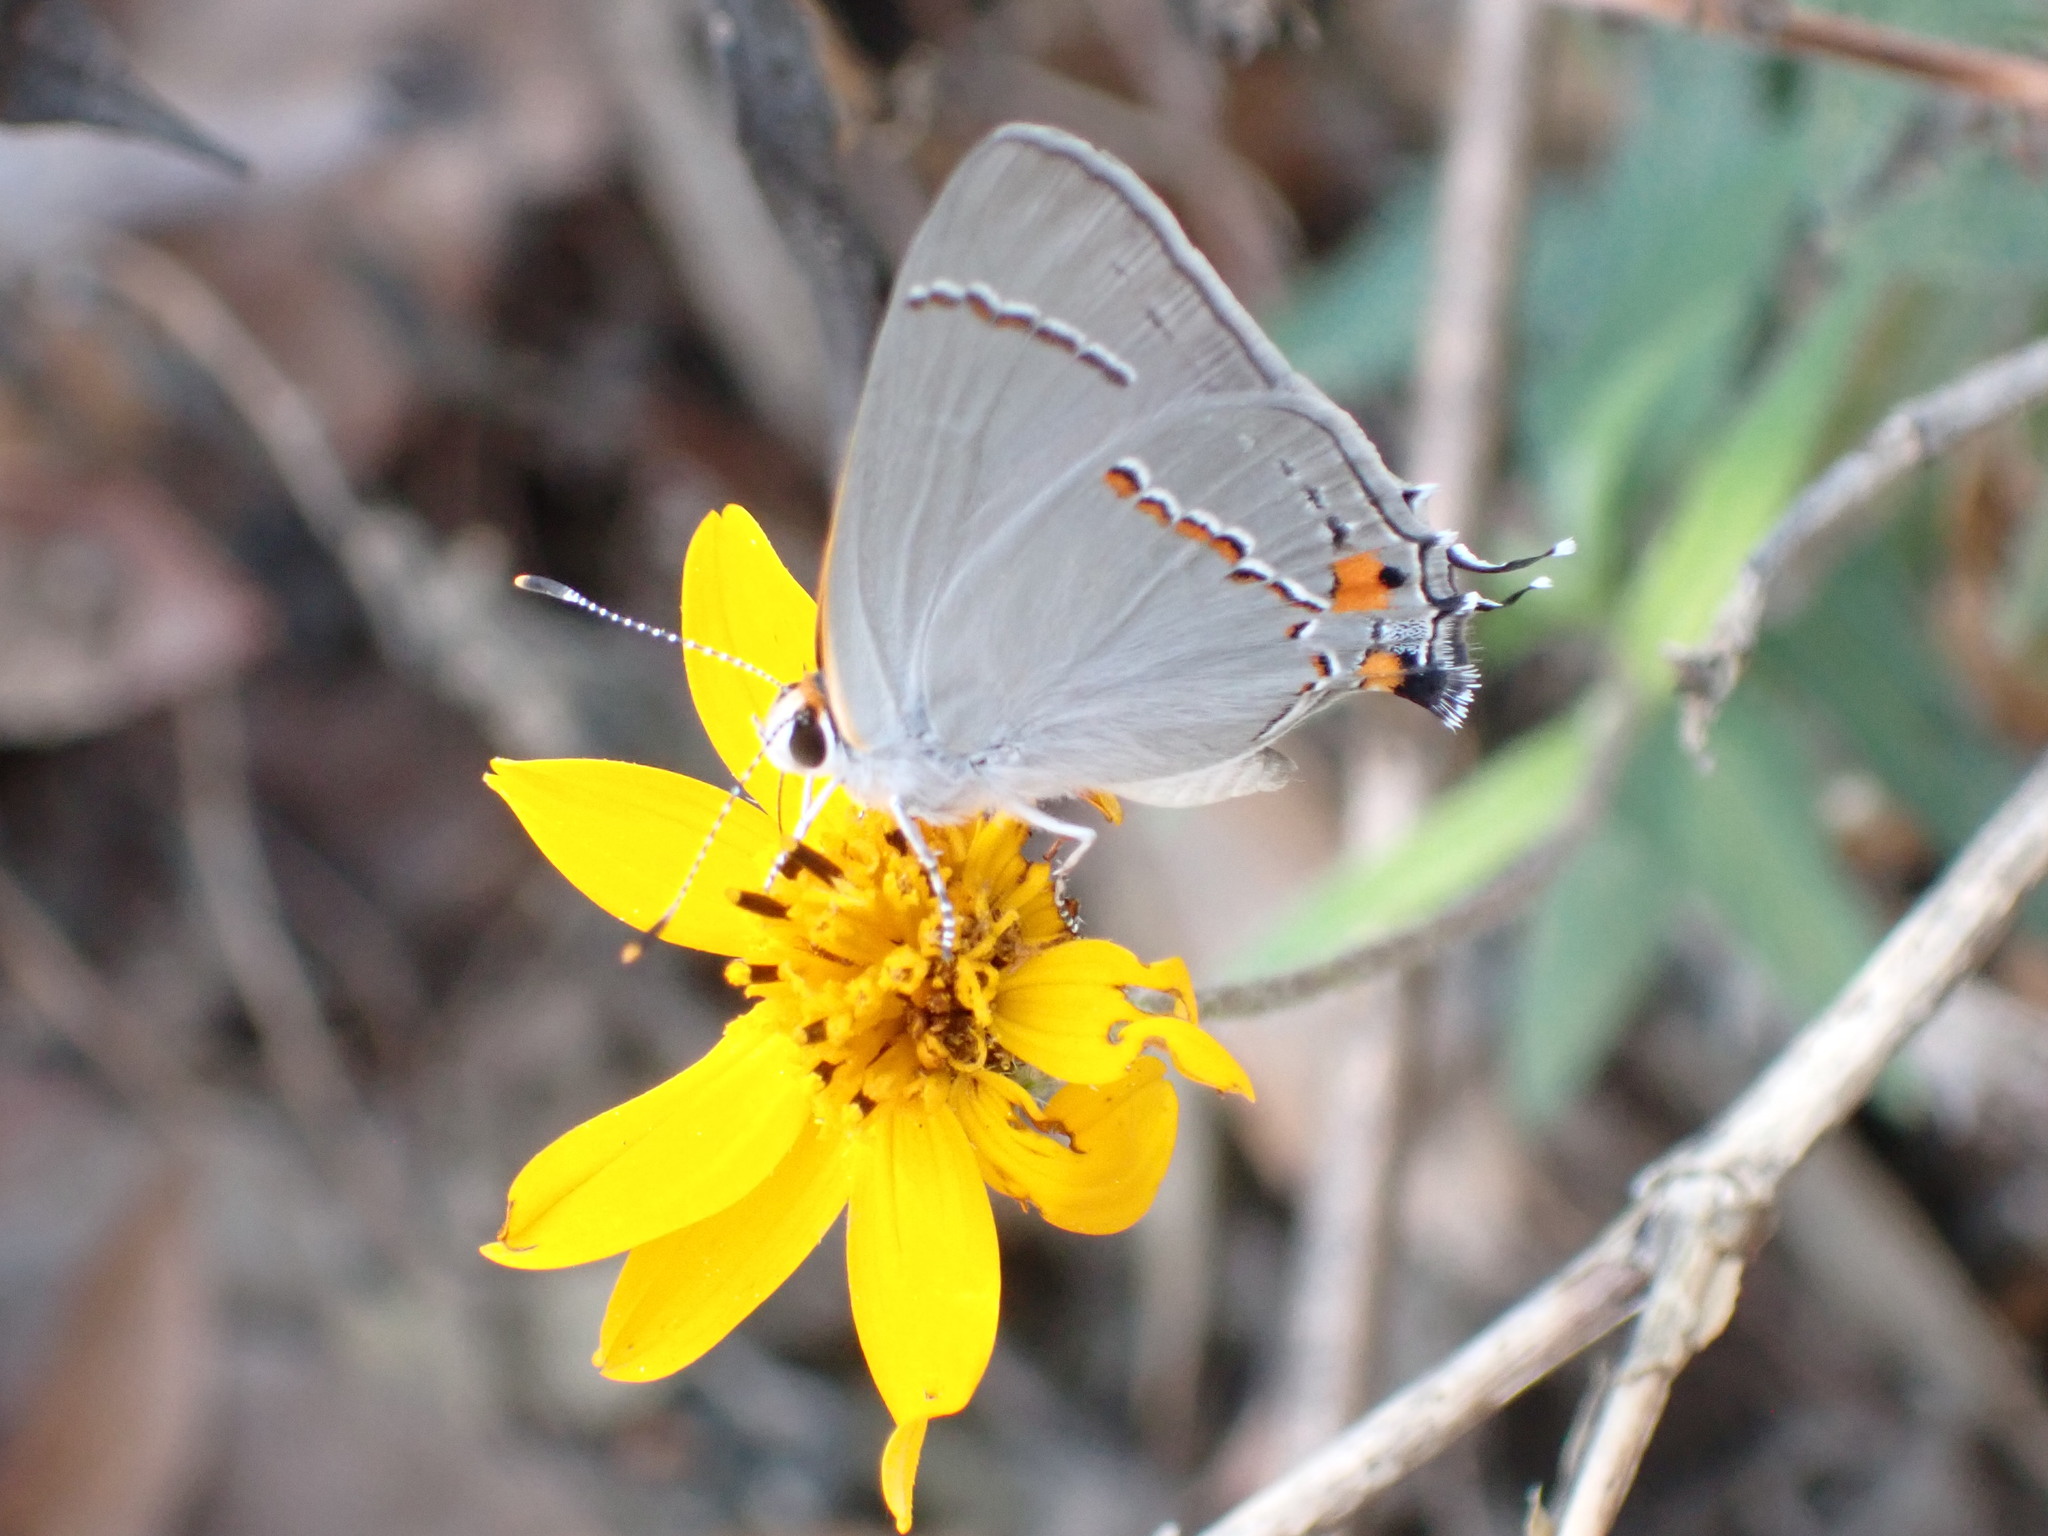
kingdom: Animalia
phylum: Arthropoda
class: Insecta
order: Lepidoptera
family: Lycaenidae
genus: Strymon
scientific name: Strymon melinus
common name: Gray hairstreak
